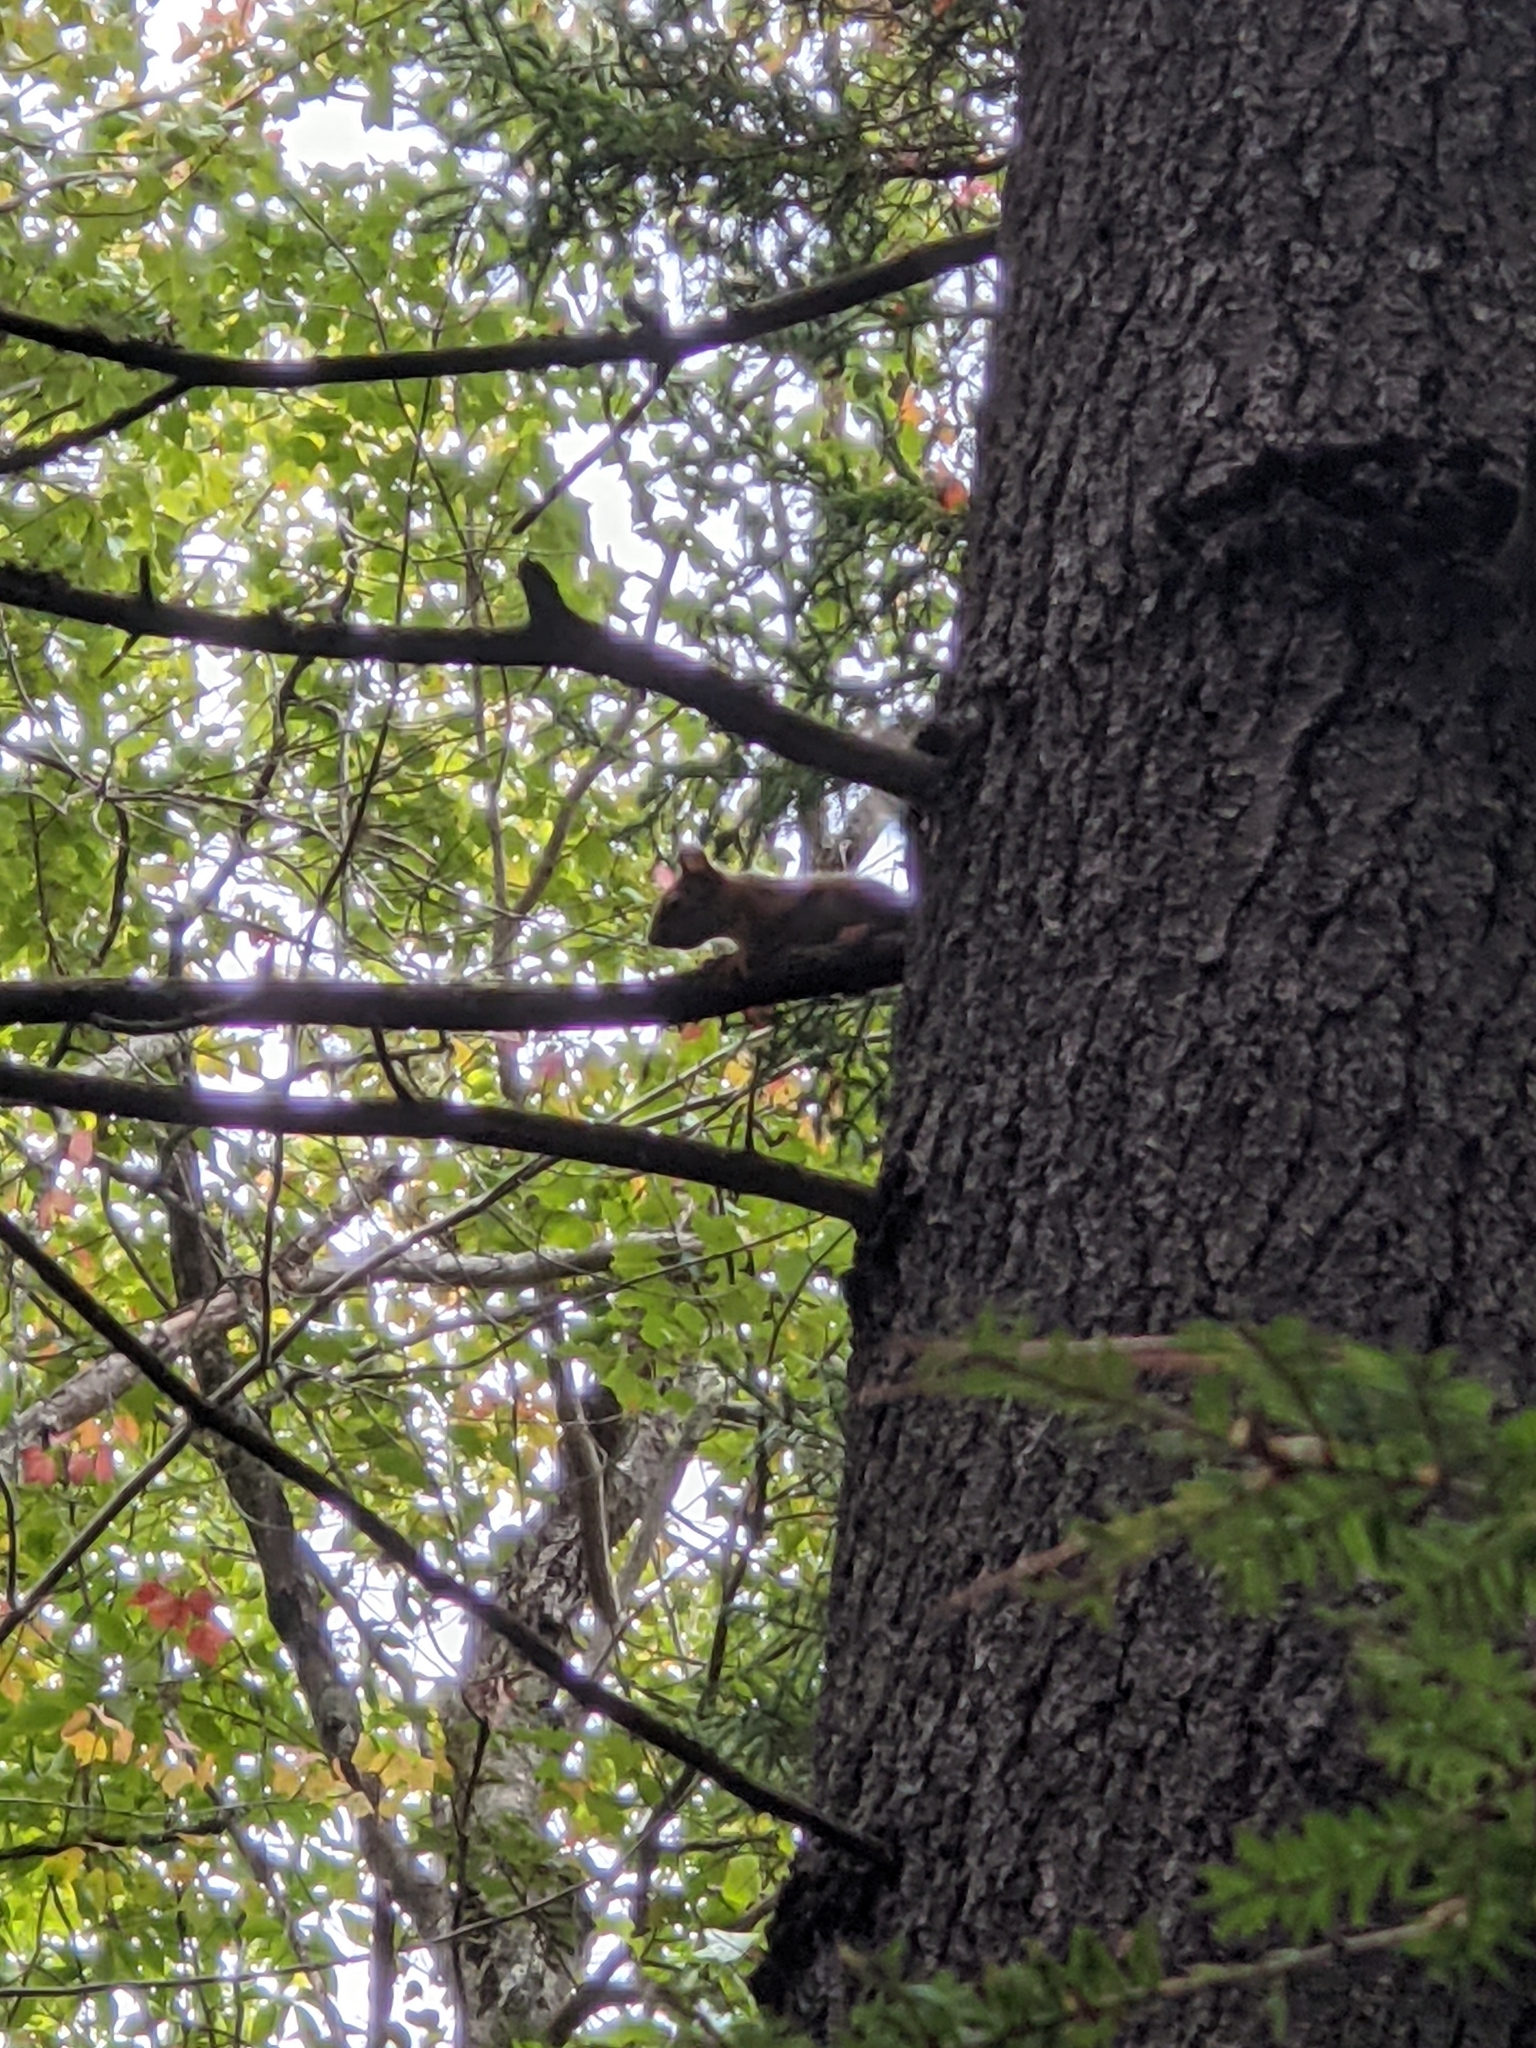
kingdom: Animalia
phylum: Chordata
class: Mammalia
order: Rodentia
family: Sciuridae
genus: Tamiasciurus
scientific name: Tamiasciurus hudsonicus
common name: Red squirrel
